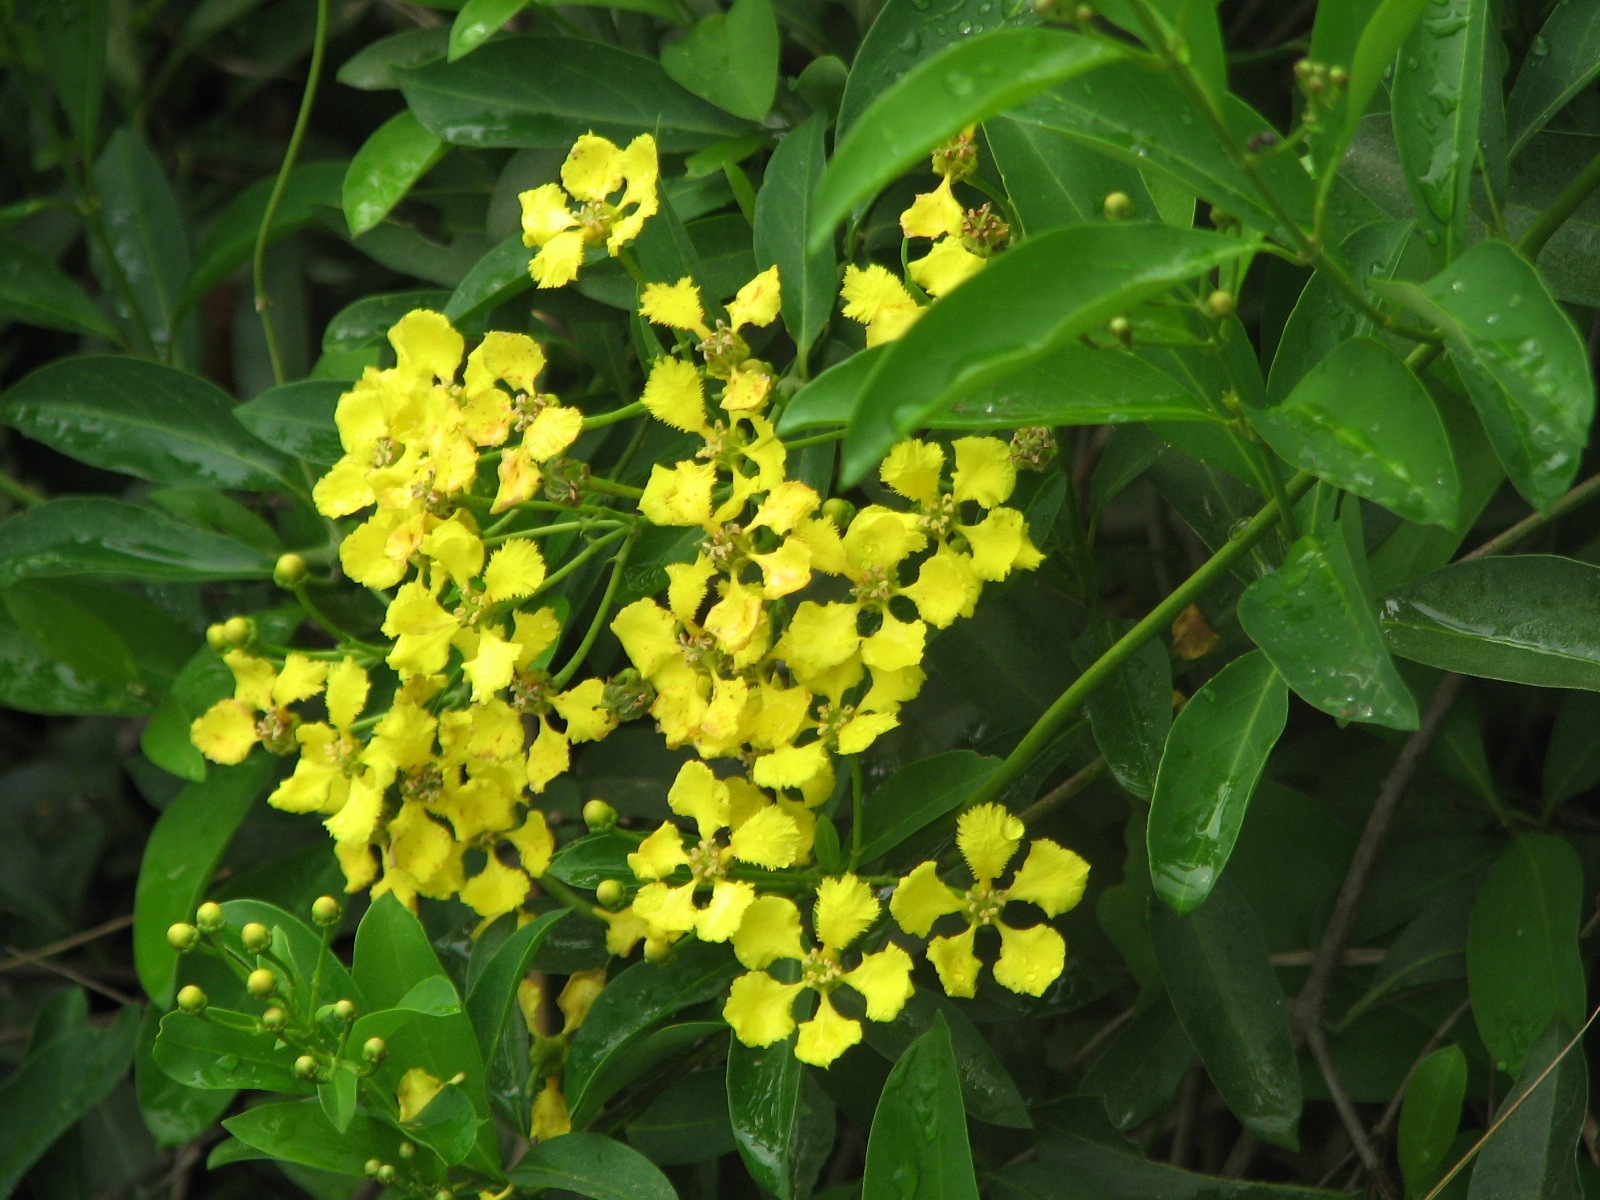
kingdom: Plantae
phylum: Tracheophyta
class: Magnoliopsida
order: Malpighiales
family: Malpighiaceae
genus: Callaeum
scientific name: Callaeum macropterum
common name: Mexican butterfly-vine
